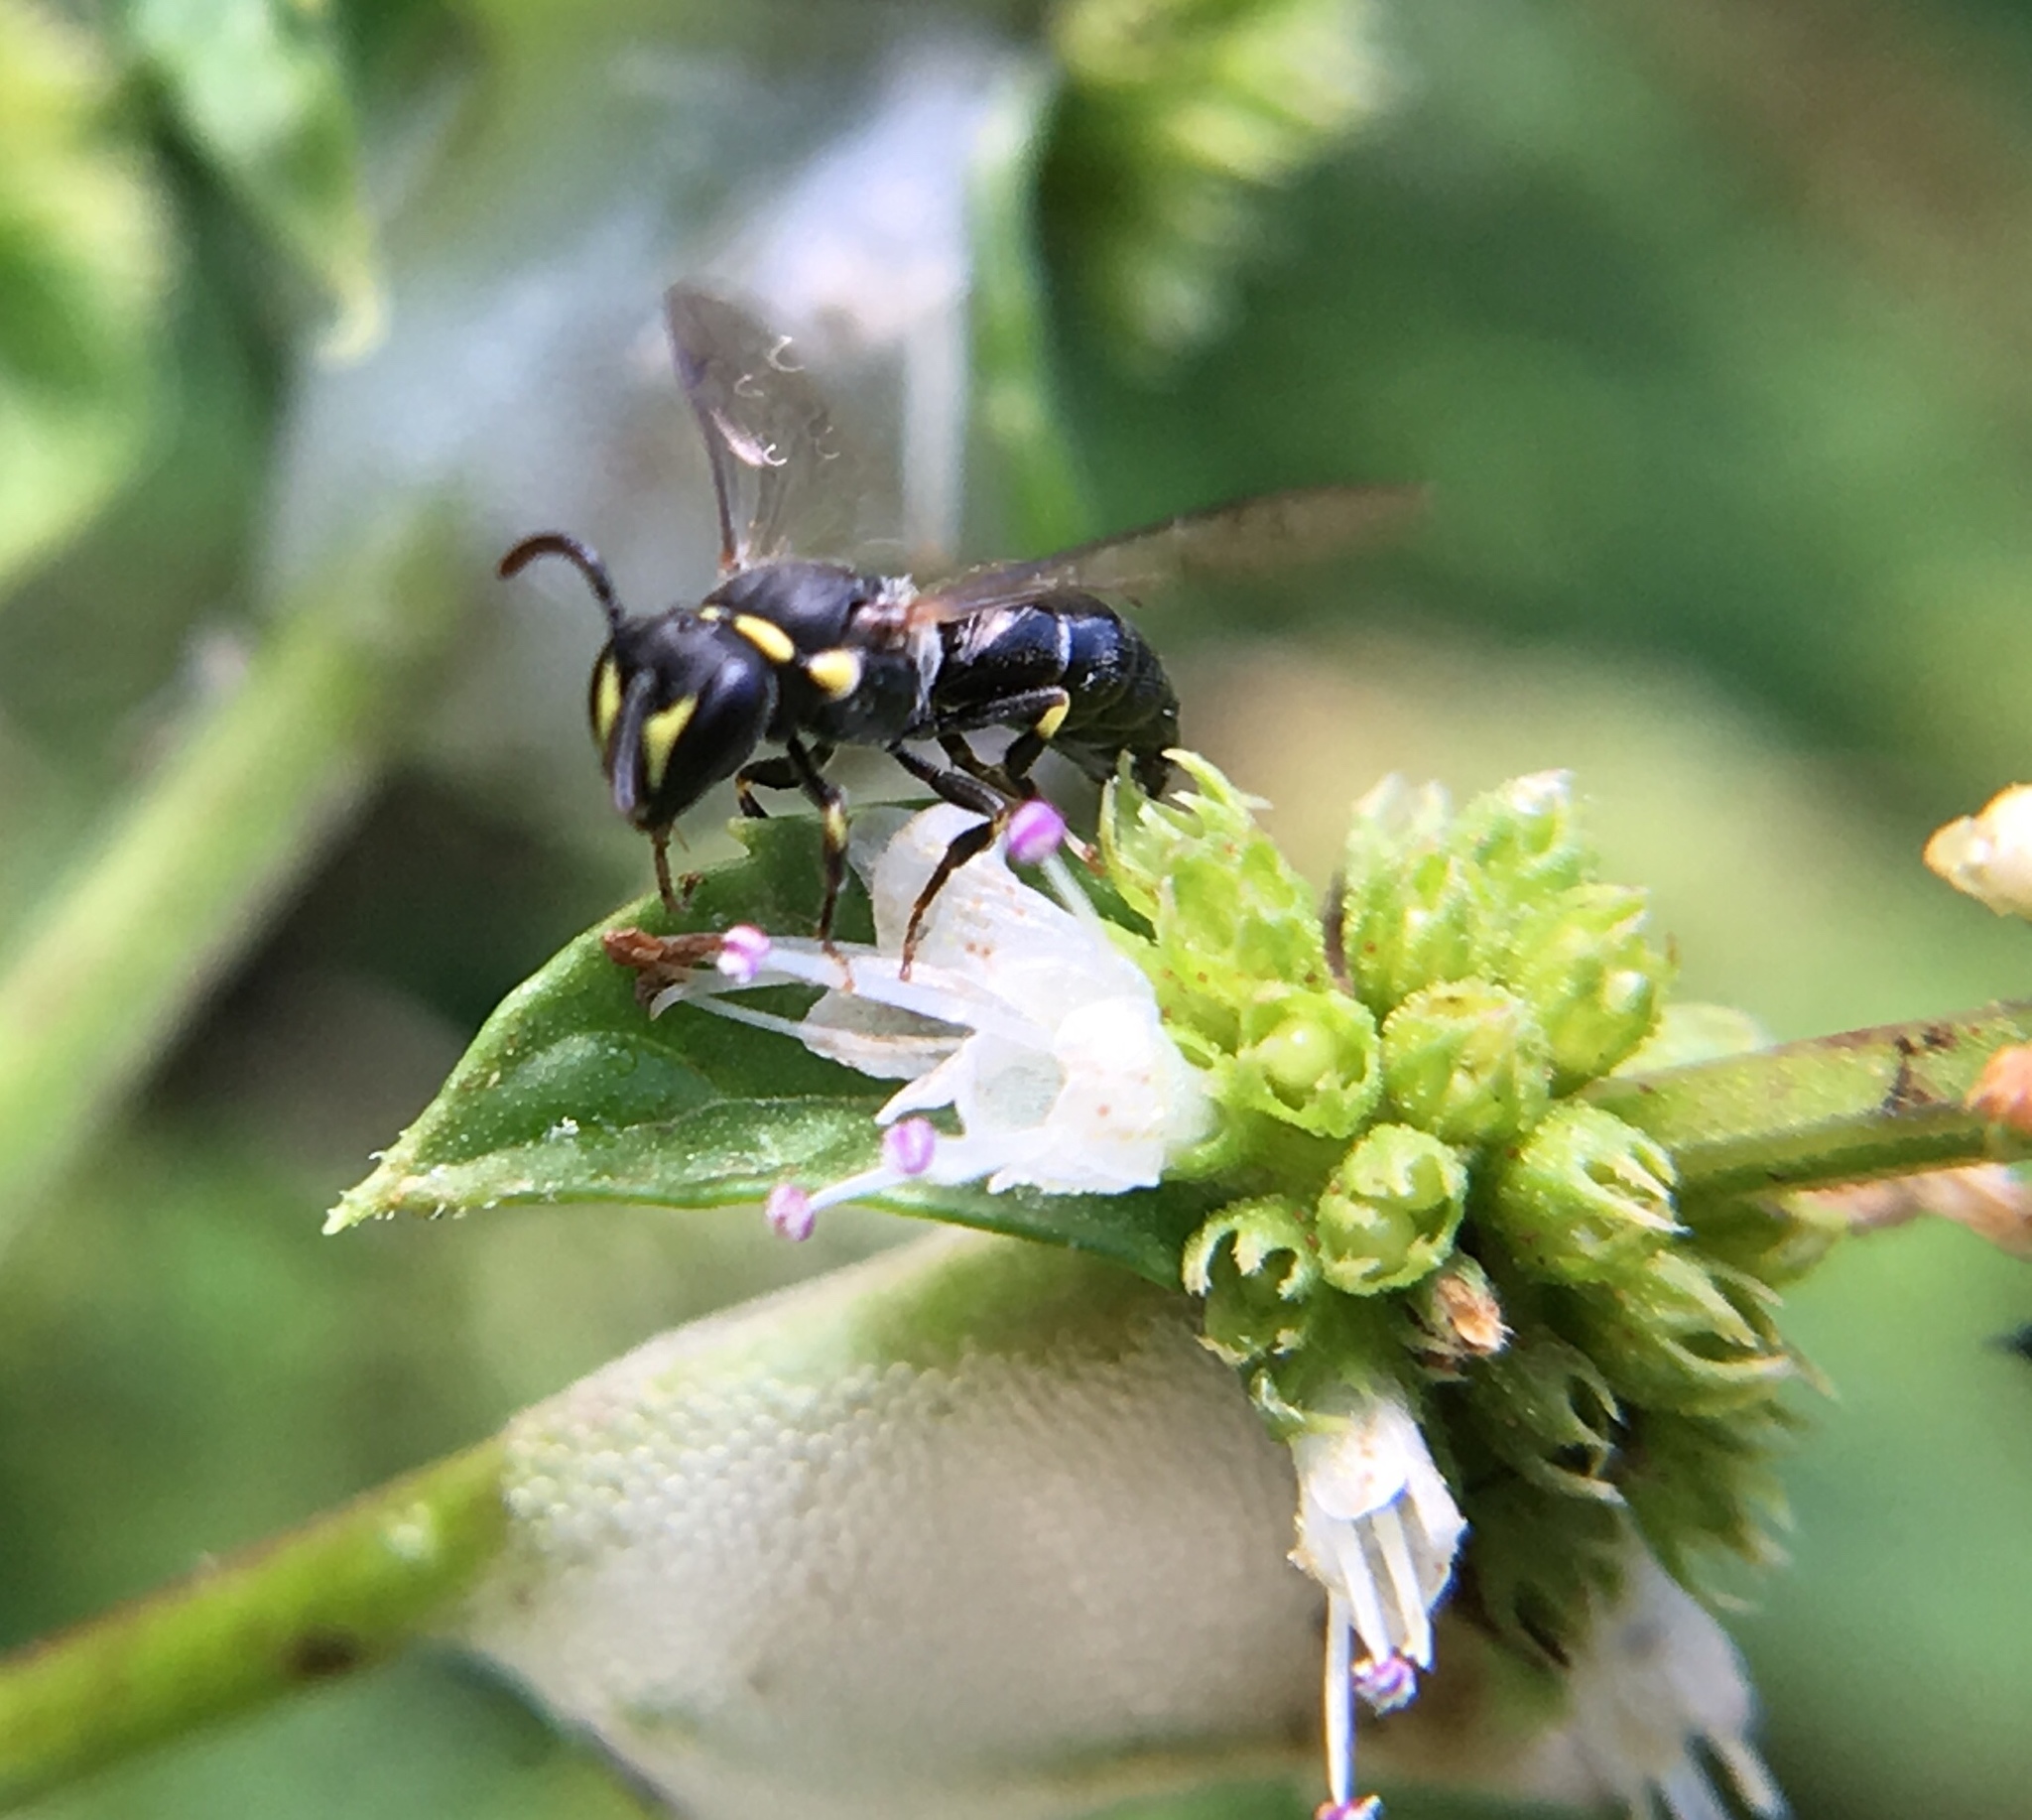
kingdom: Animalia
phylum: Arthropoda
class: Insecta
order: Hymenoptera
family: Colletidae
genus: Hylaeus
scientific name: Hylaeus modestus
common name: Yellow-faced bee
